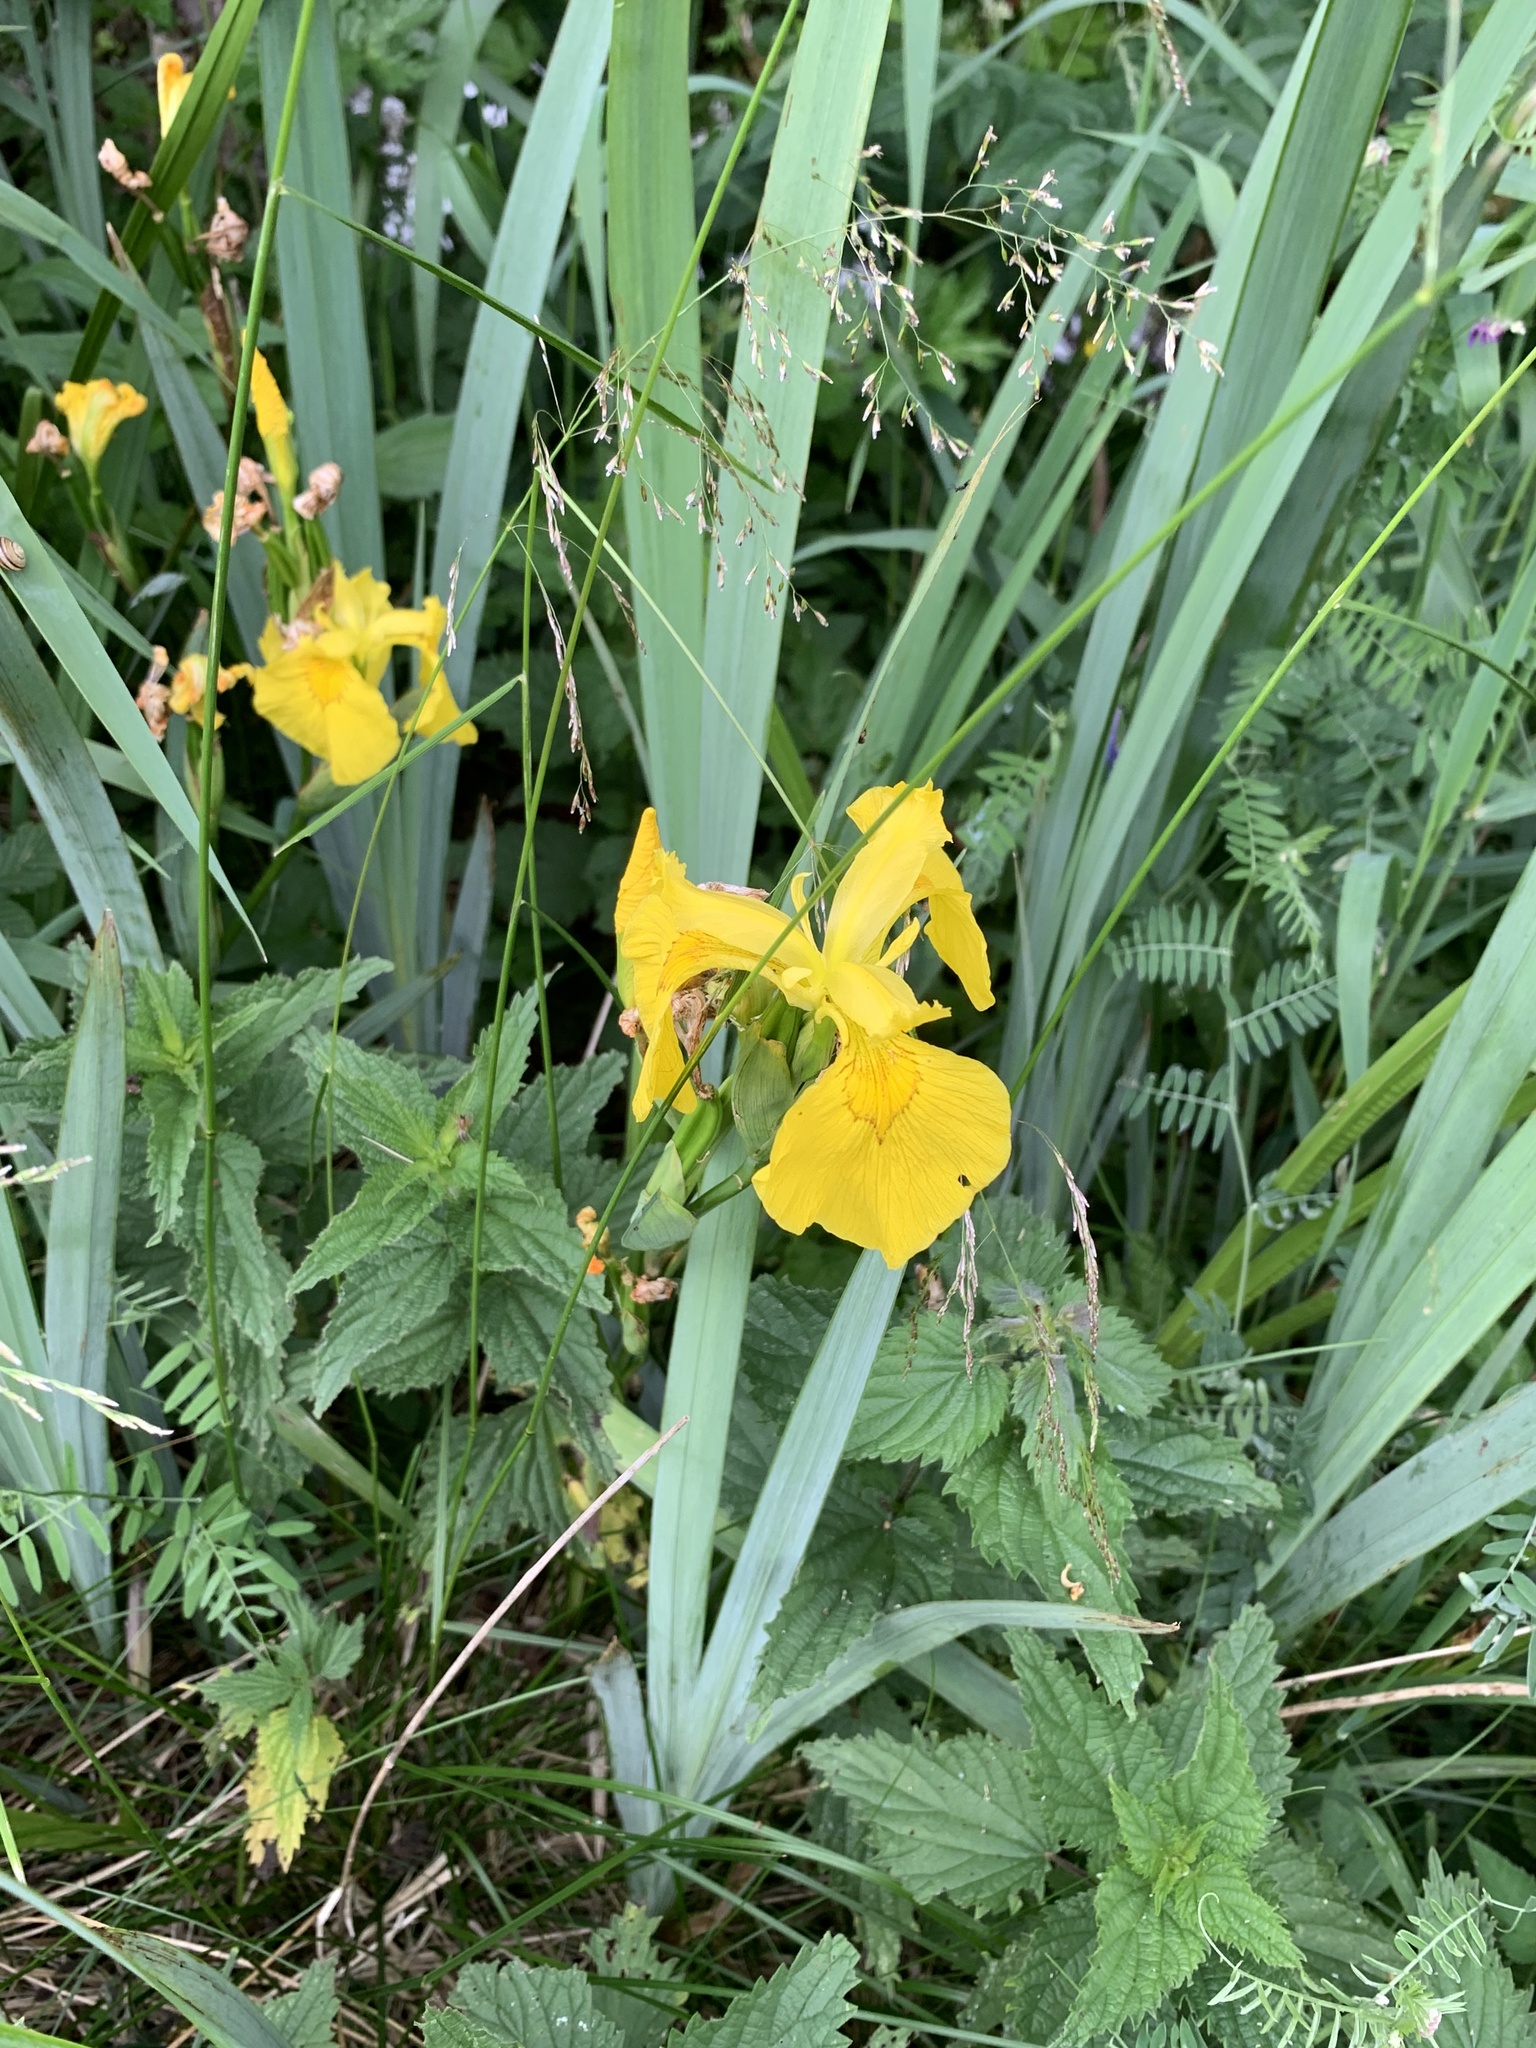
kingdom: Plantae
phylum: Tracheophyta
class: Liliopsida
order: Asparagales
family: Iridaceae
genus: Iris
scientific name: Iris pseudacorus
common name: Yellow flag
